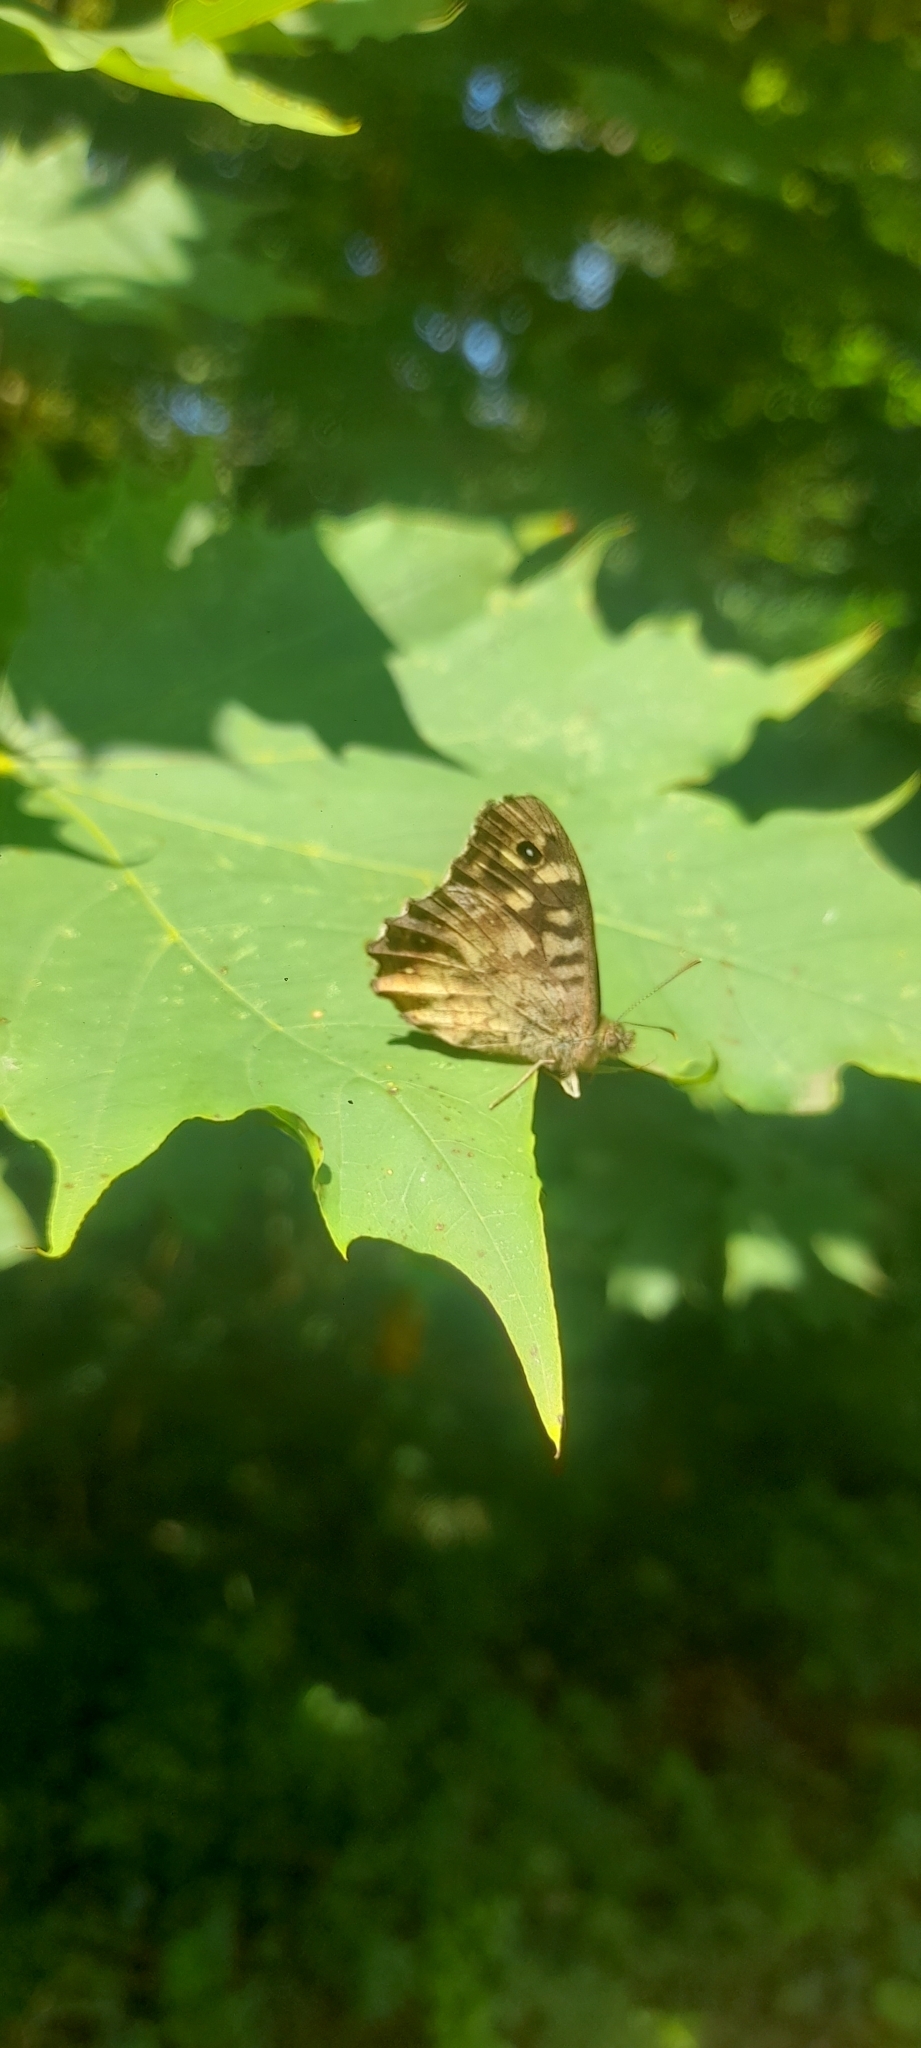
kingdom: Animalia
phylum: Arthropoda
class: Insecta
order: Lepidoptera
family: Nymphalidae
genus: Pararge
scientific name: Pararge aegeria
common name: Speckled wood
